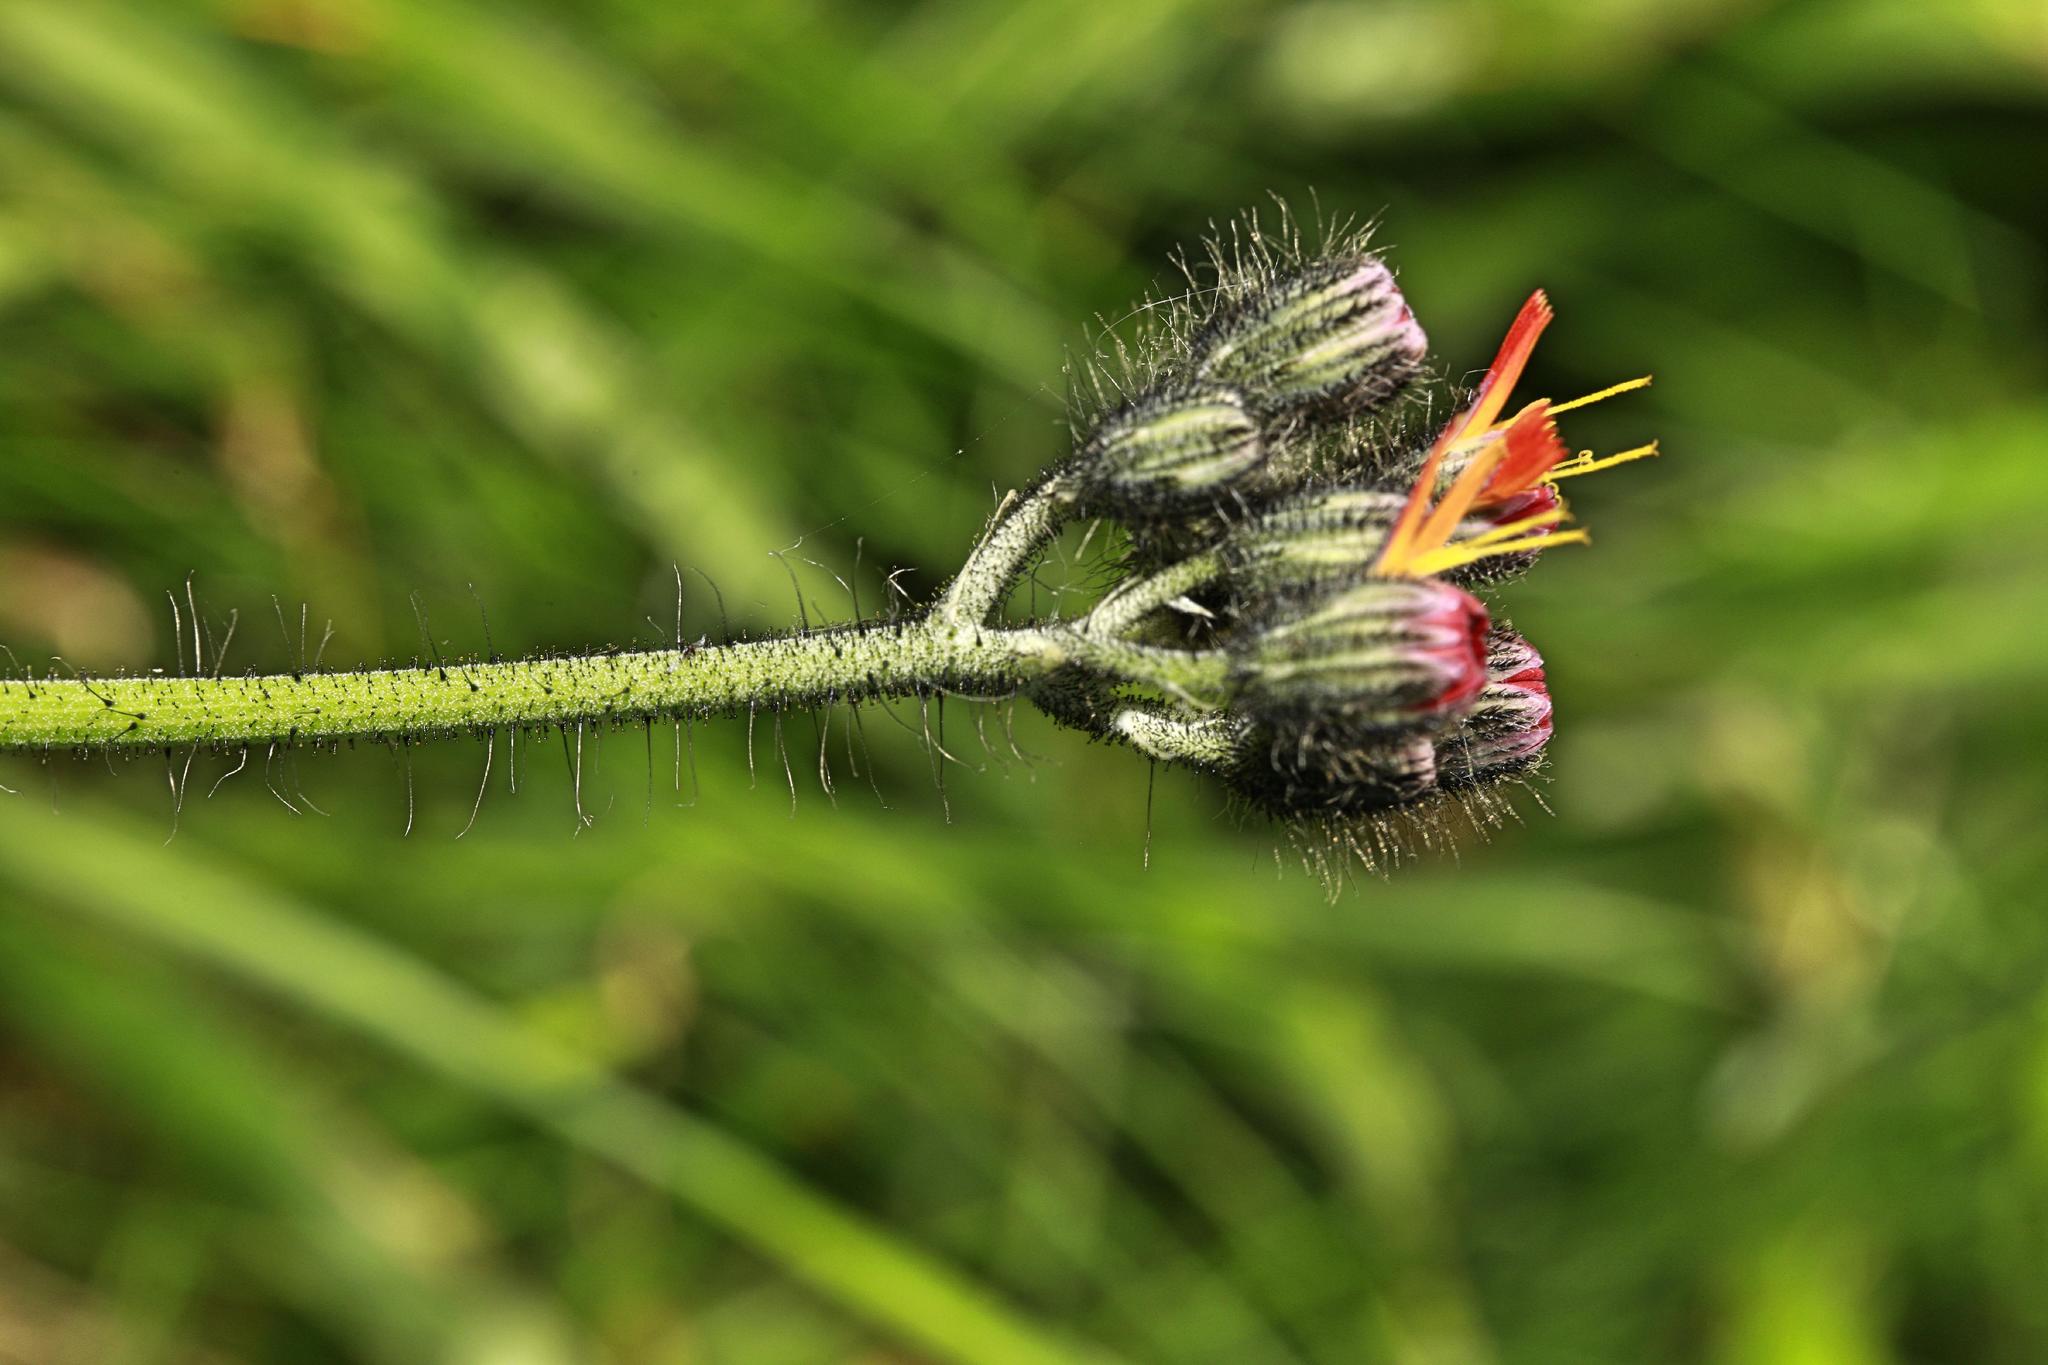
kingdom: Plantae
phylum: Tracheophyta
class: Magnoliopsida
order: Asterales
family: Asteraceae
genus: Pilosella
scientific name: Pilosella aurantiaca
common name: Fox-and-cubs
